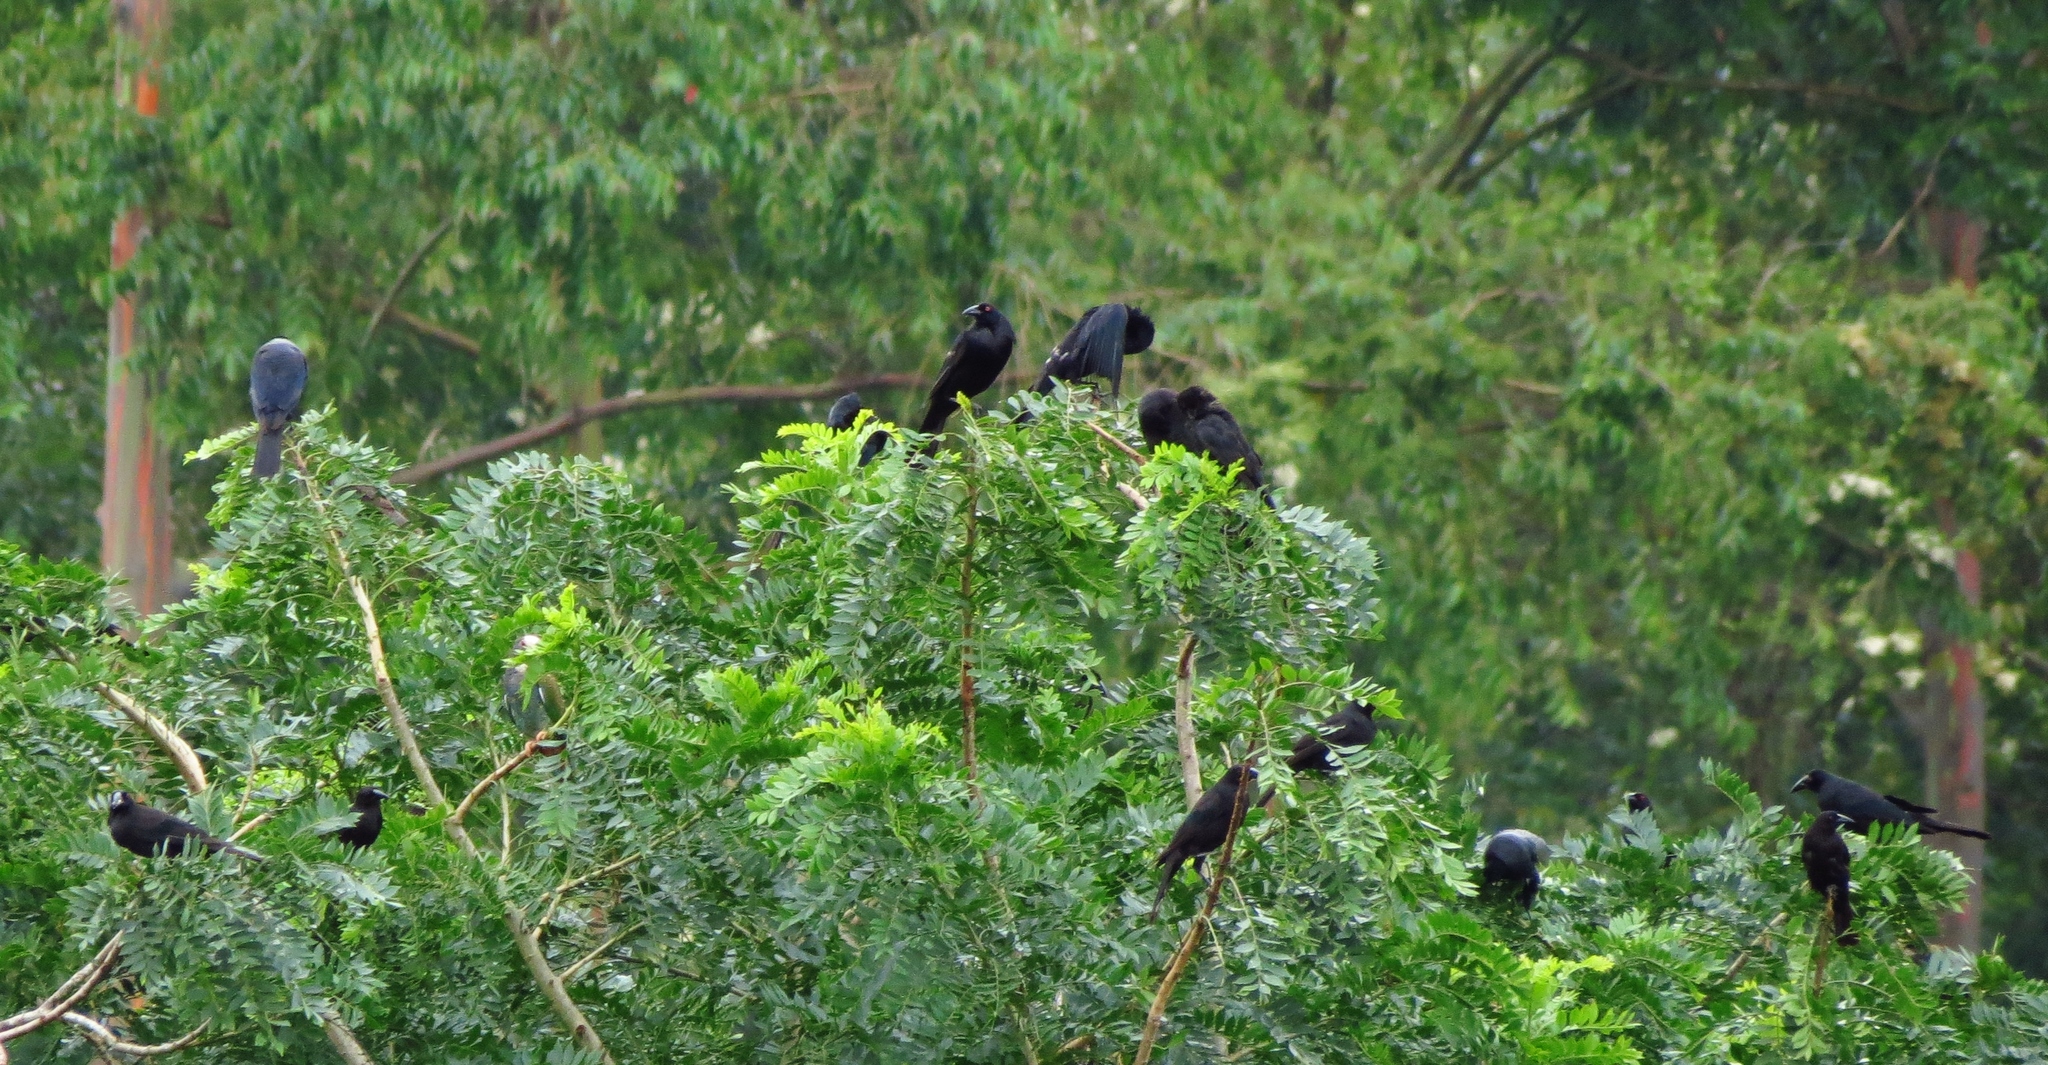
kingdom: Animalia
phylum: Chordata
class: Aves
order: Passeriformes
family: Icteridae
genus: Molothrus
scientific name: Molothrus oryzivorus
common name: Giant cowbird
